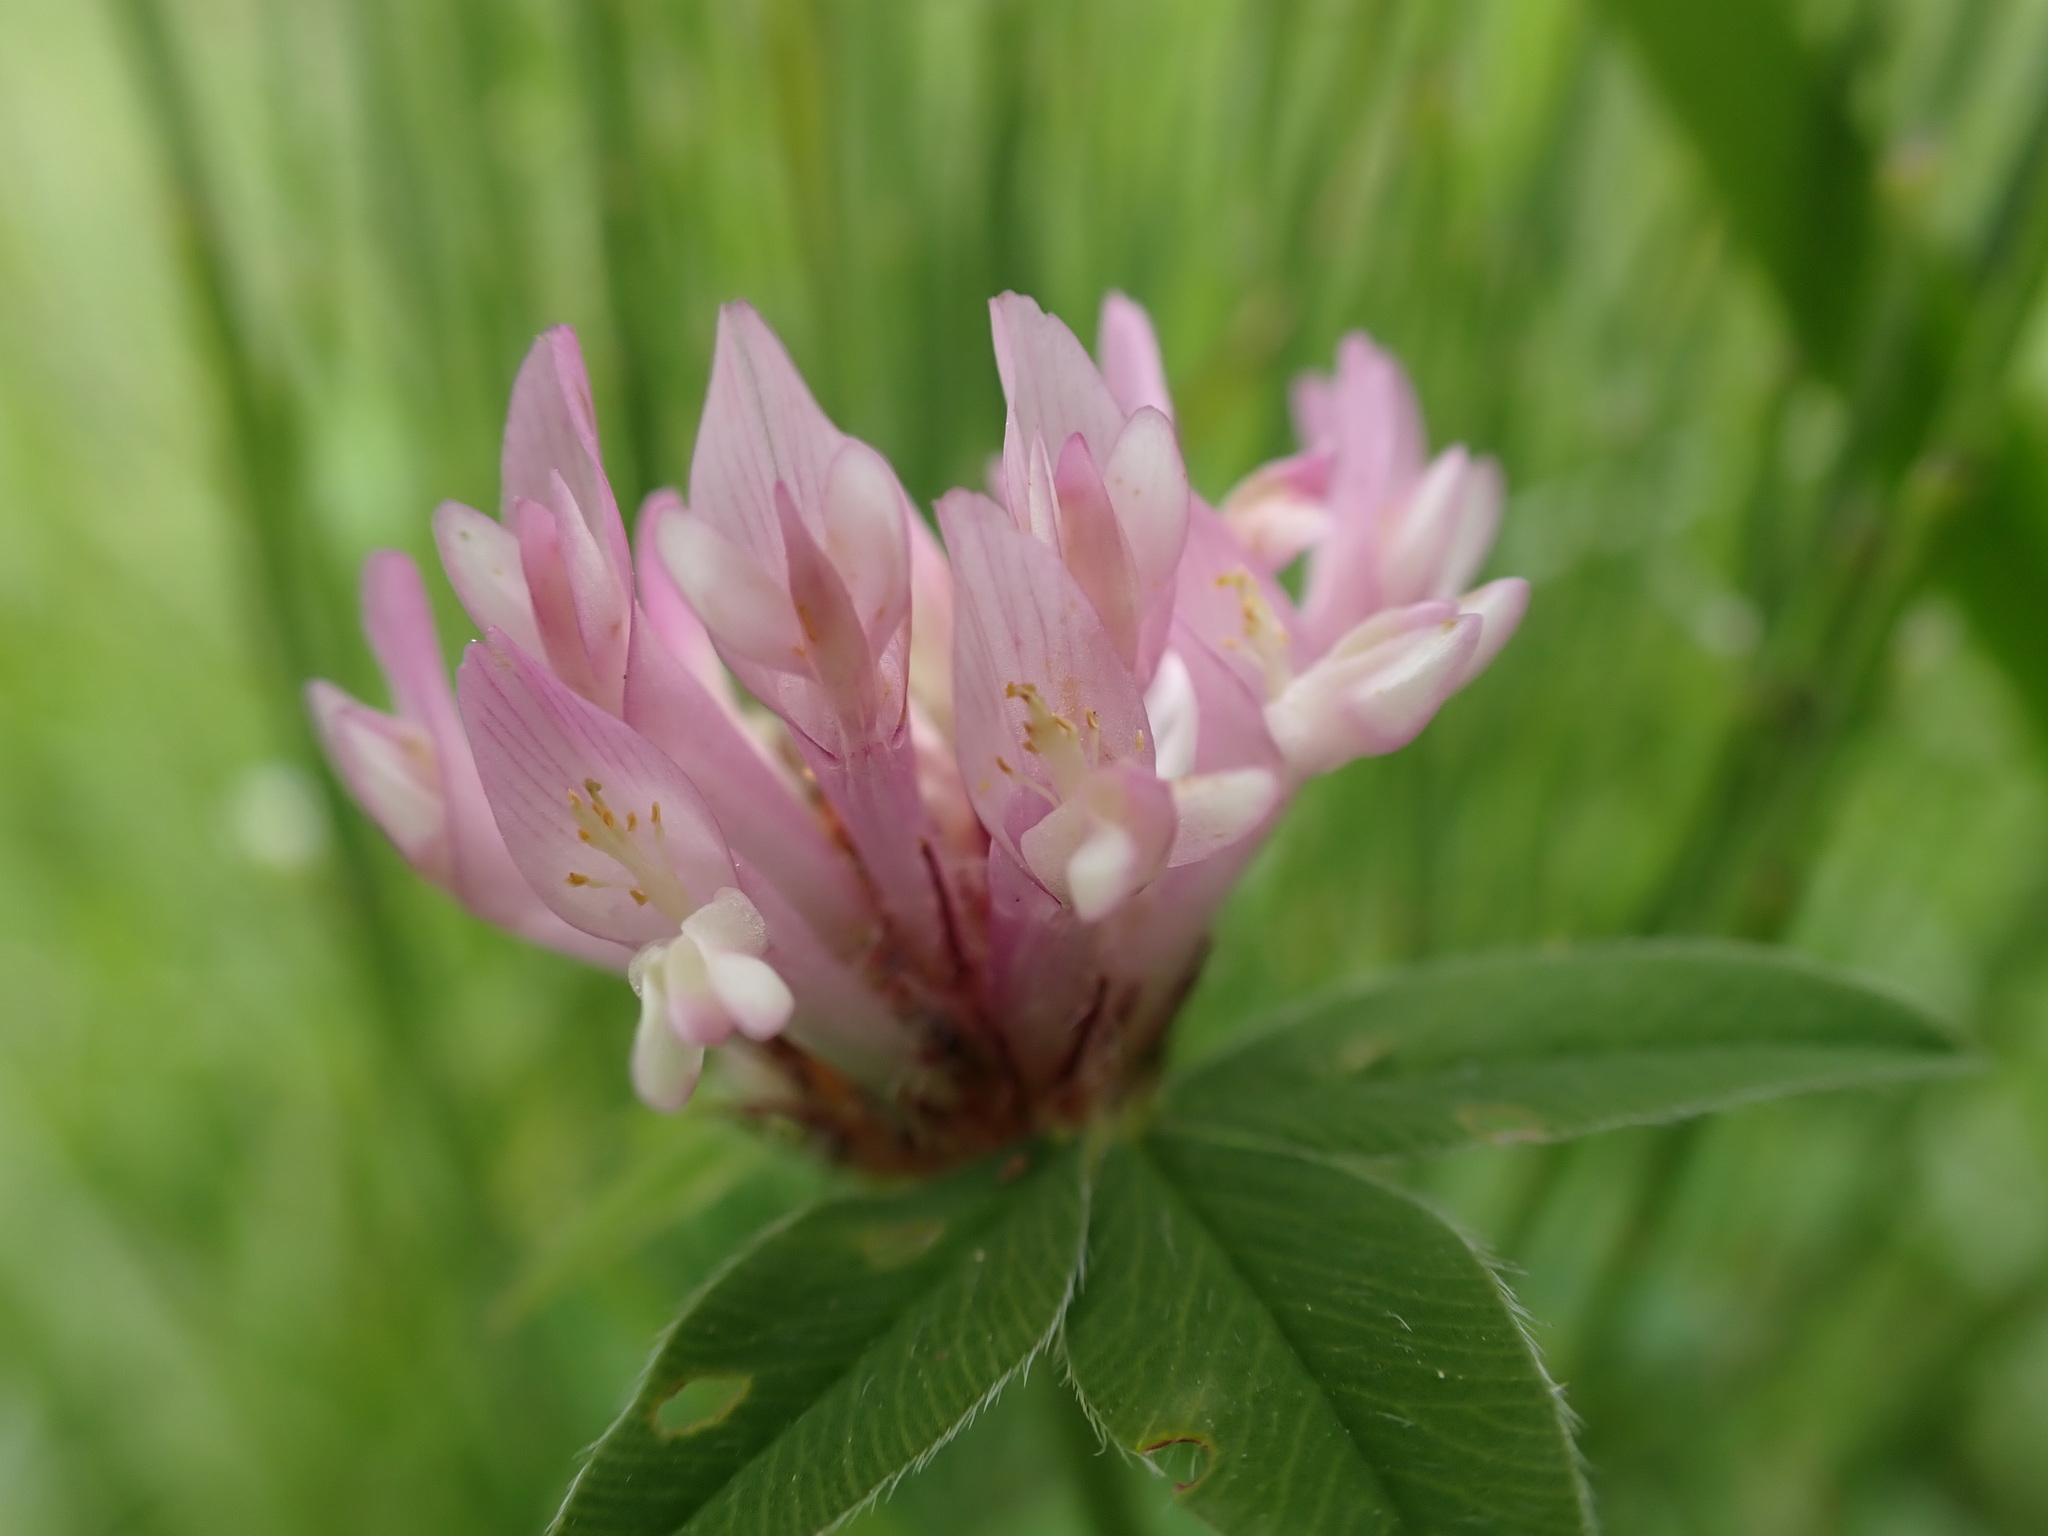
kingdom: Plantae
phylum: Tracheophyta
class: Magnoliopsida
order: Fabales
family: Fabaceae
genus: Trifolium
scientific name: Trifolium pratense
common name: Red clover
